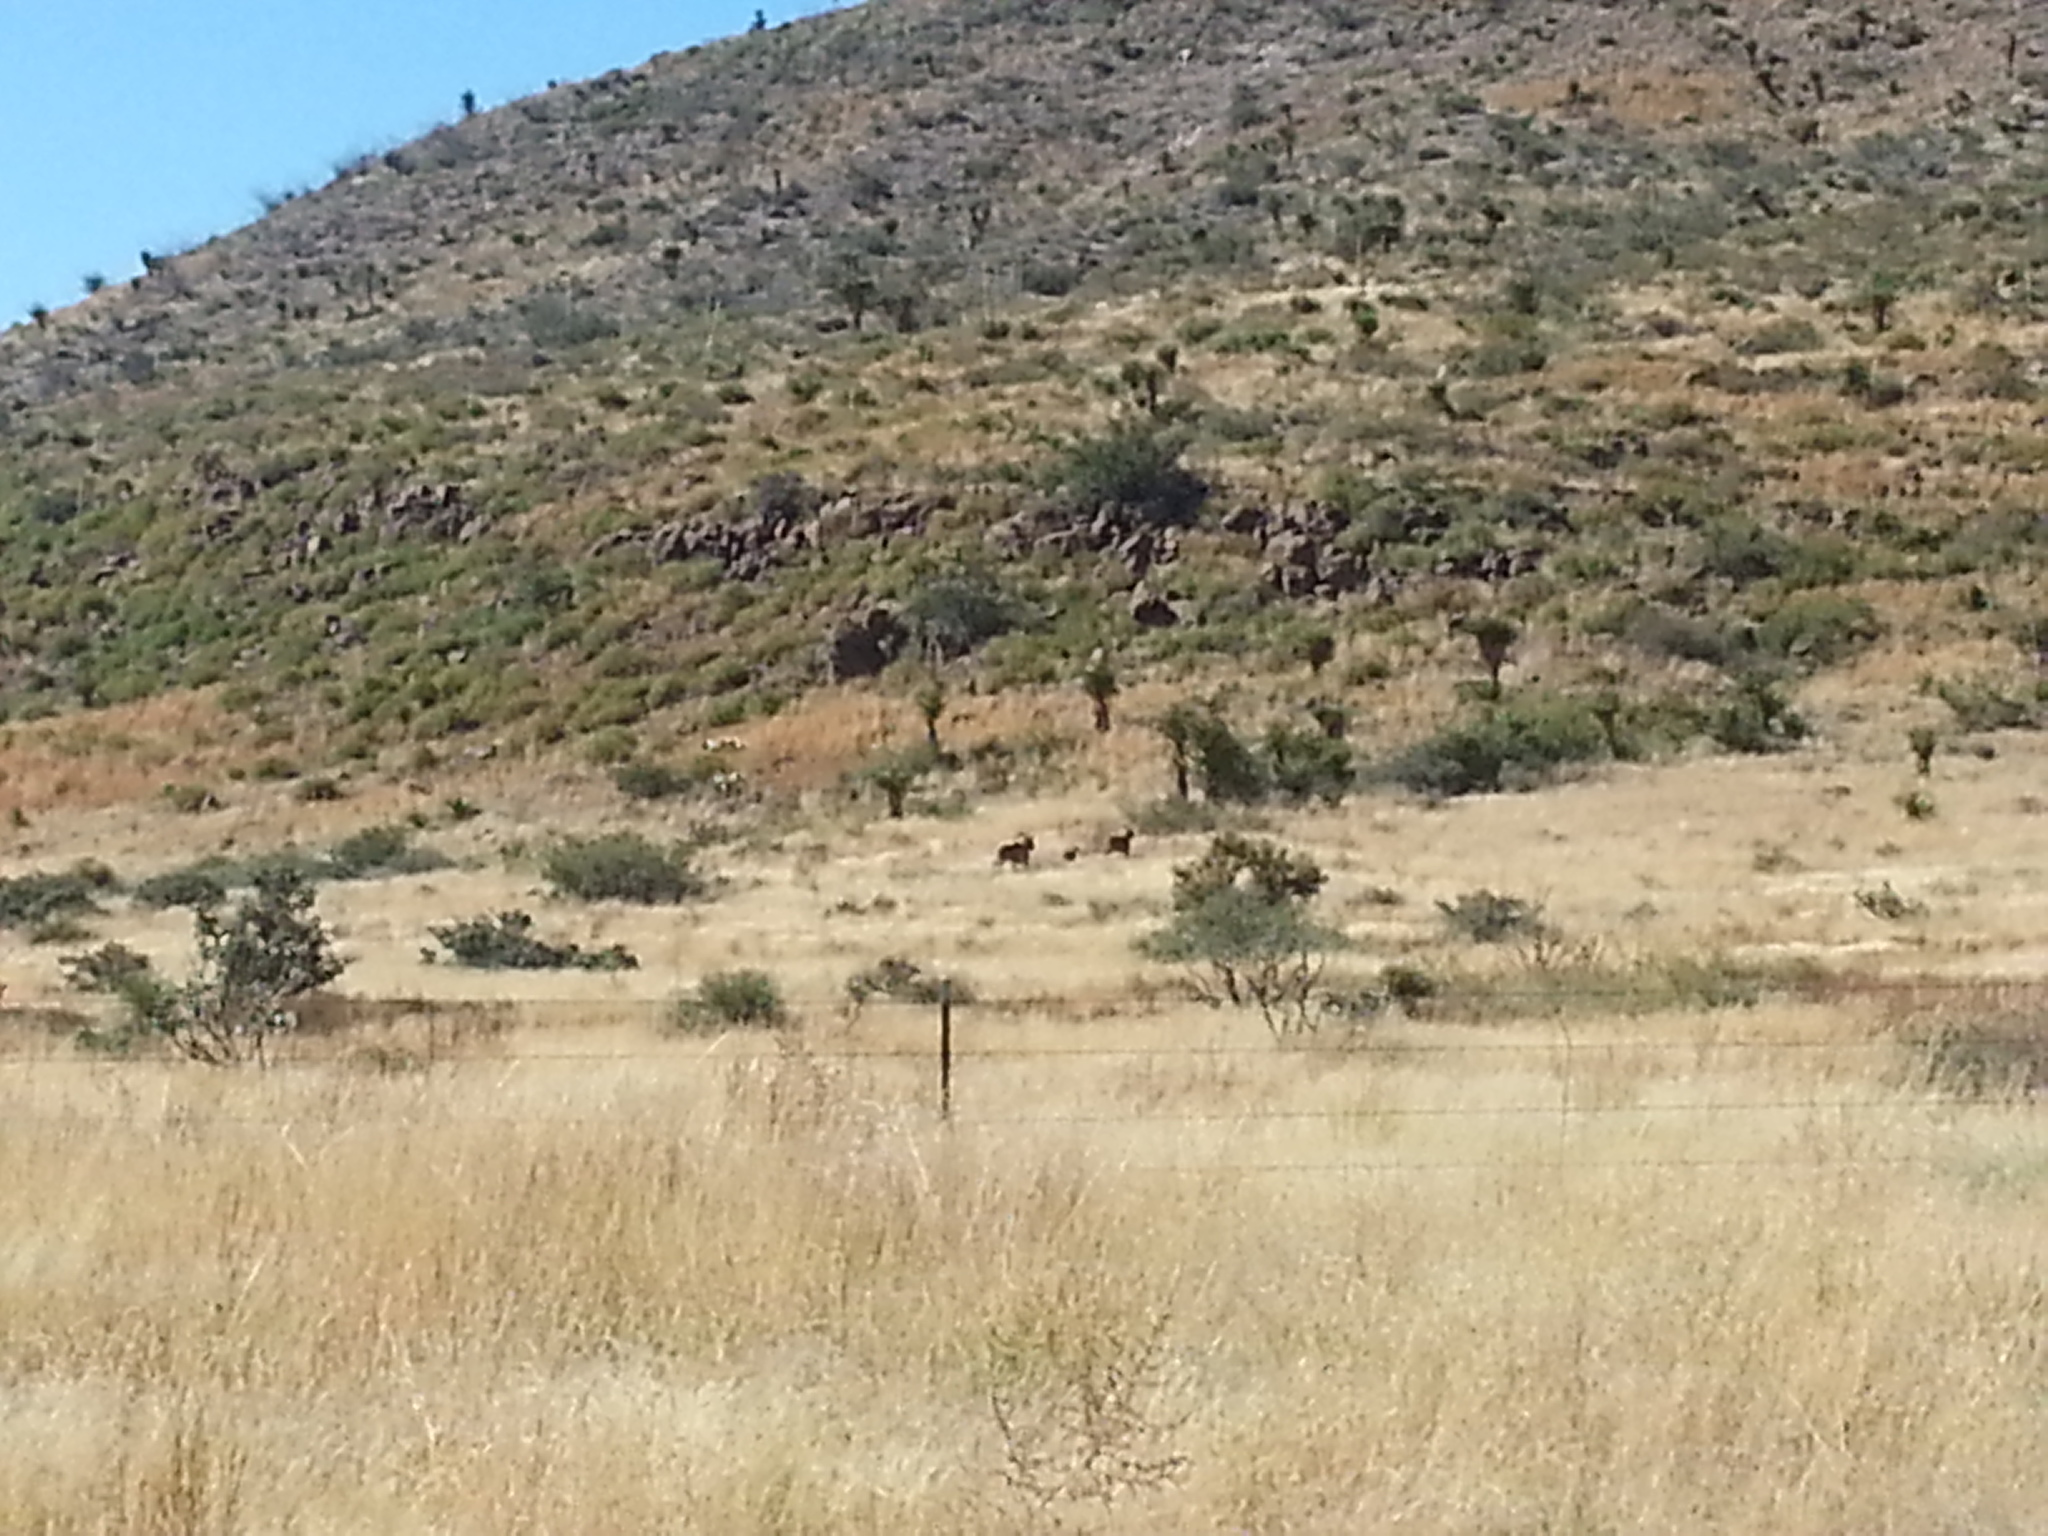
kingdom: Animalia
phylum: Chordata
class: Mammalia
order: Artiodactyla
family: Bovidae
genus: Ammotragus
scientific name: Ammotragus lervia
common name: Barbary sheep
